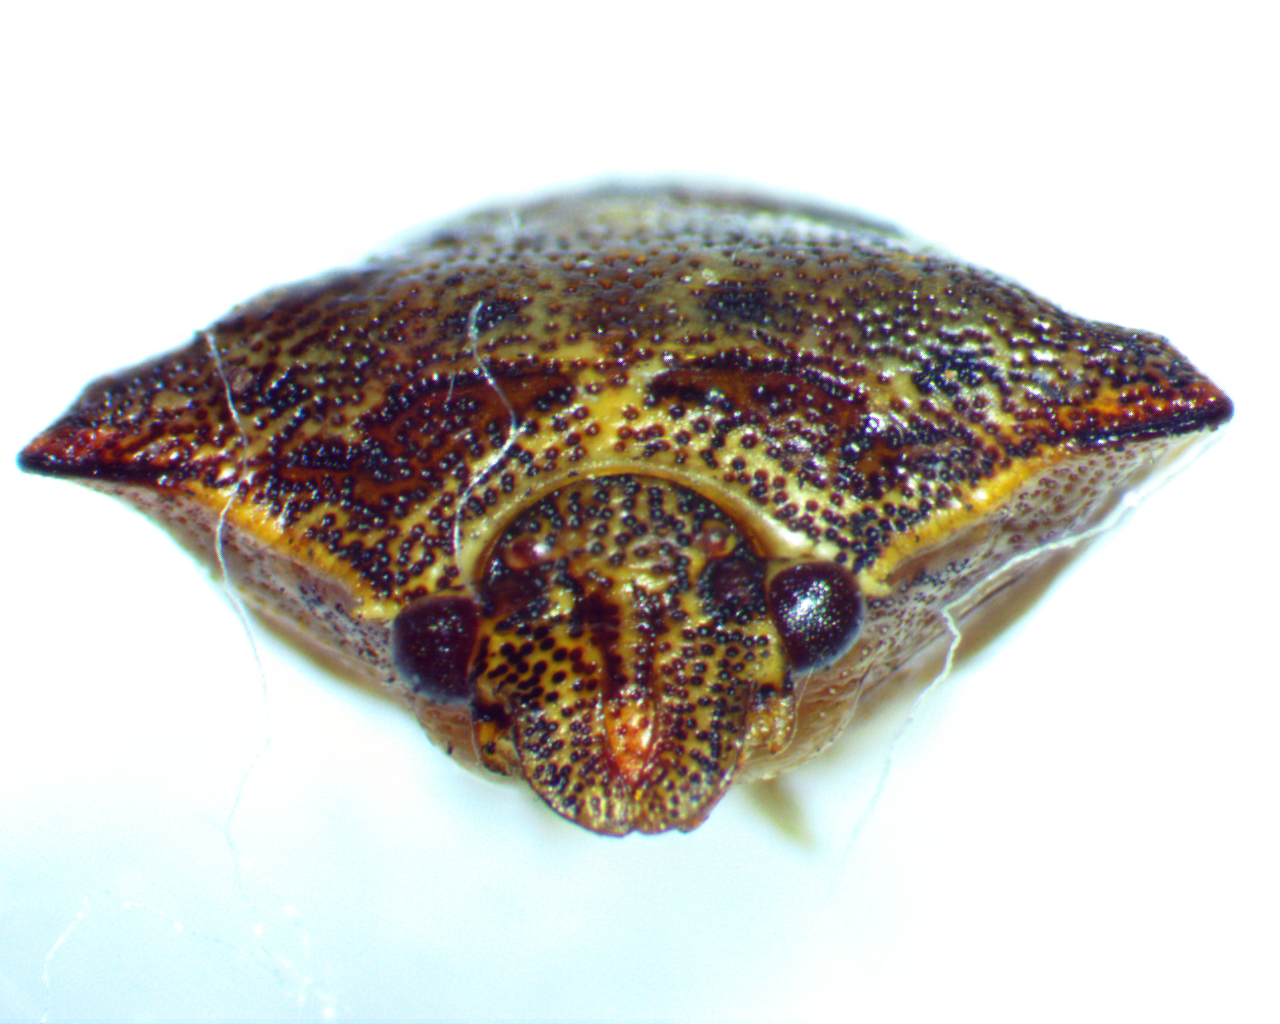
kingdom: Animalia
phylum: Arthropoda
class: Insecta
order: Hemiptera
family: Pentatomidae
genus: Dendrocoris
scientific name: Dendrocoris humeralis
